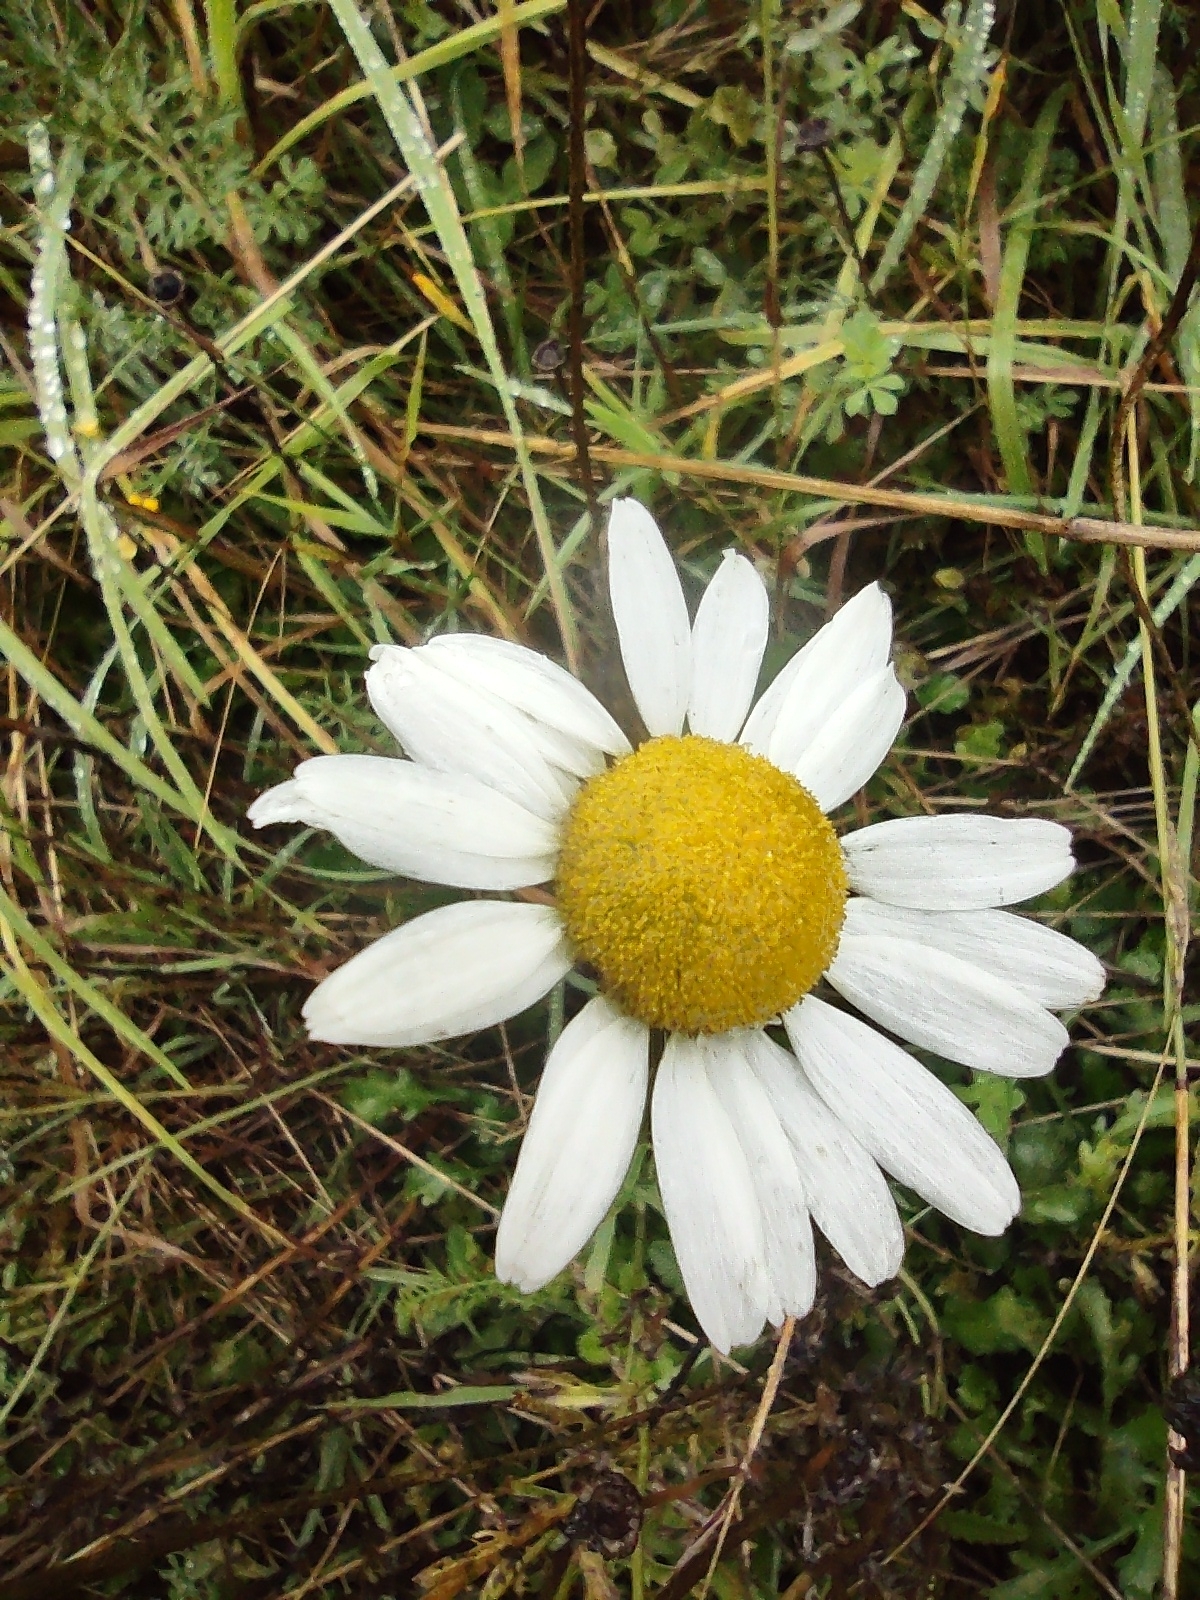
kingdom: Plantae
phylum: Tracheophyta
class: Magnoliopsida
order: Asterales
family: Asteraceae
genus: Leucanthemum
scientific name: Leucanthemum vulgare
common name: Oxeye daisy
